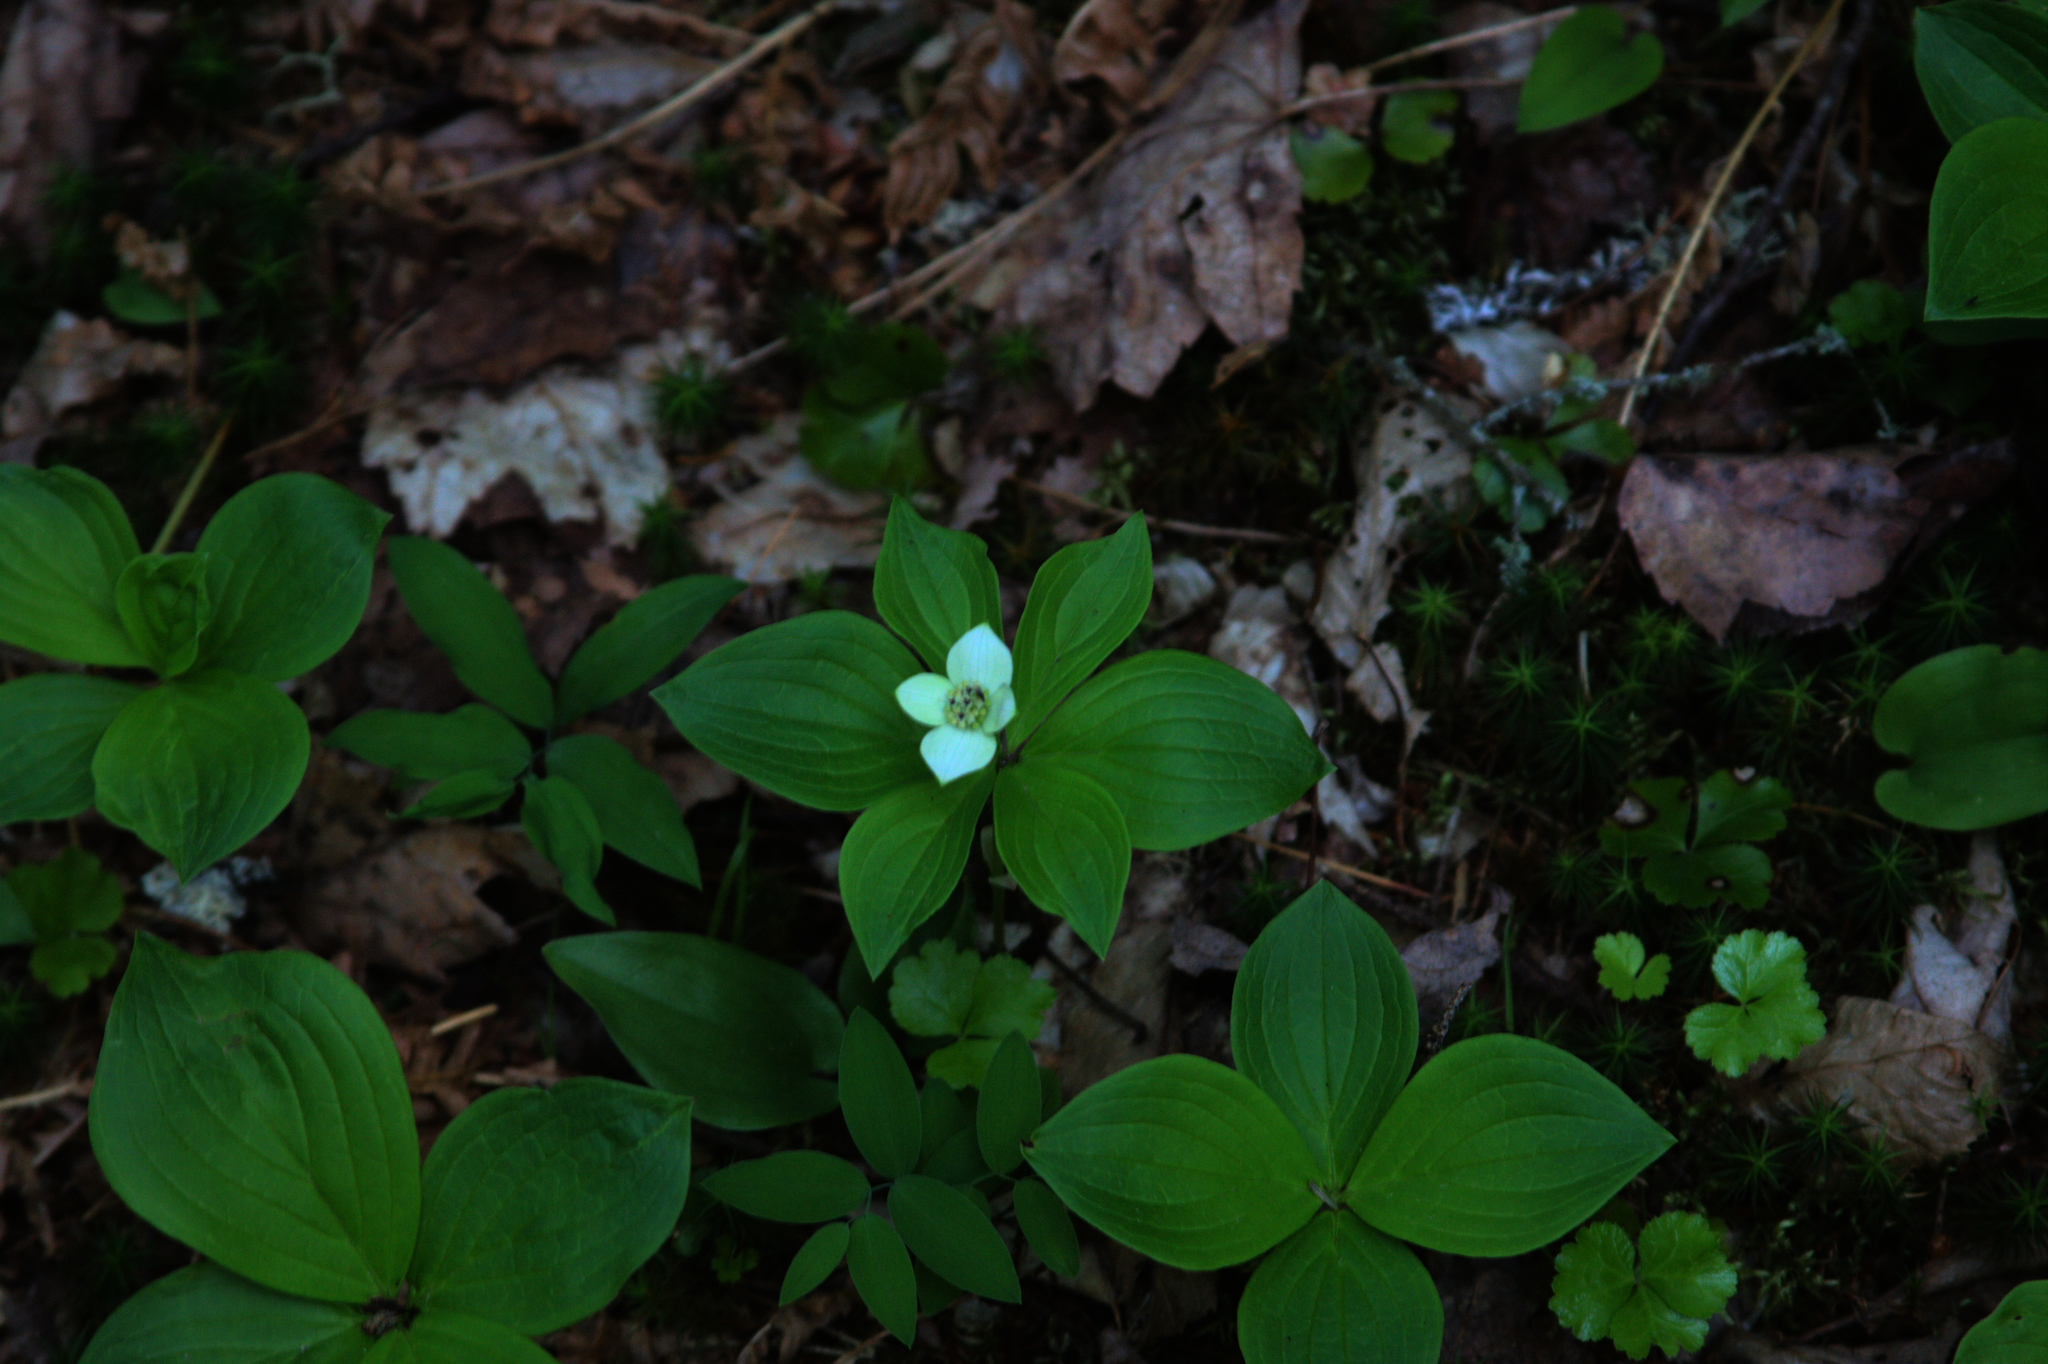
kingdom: Plantae
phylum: Tracheophyta
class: Magnoliopsida
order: Cornales
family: Cornaceae
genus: Cornus
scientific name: Cornus canadensis
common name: Creeping dogwood
